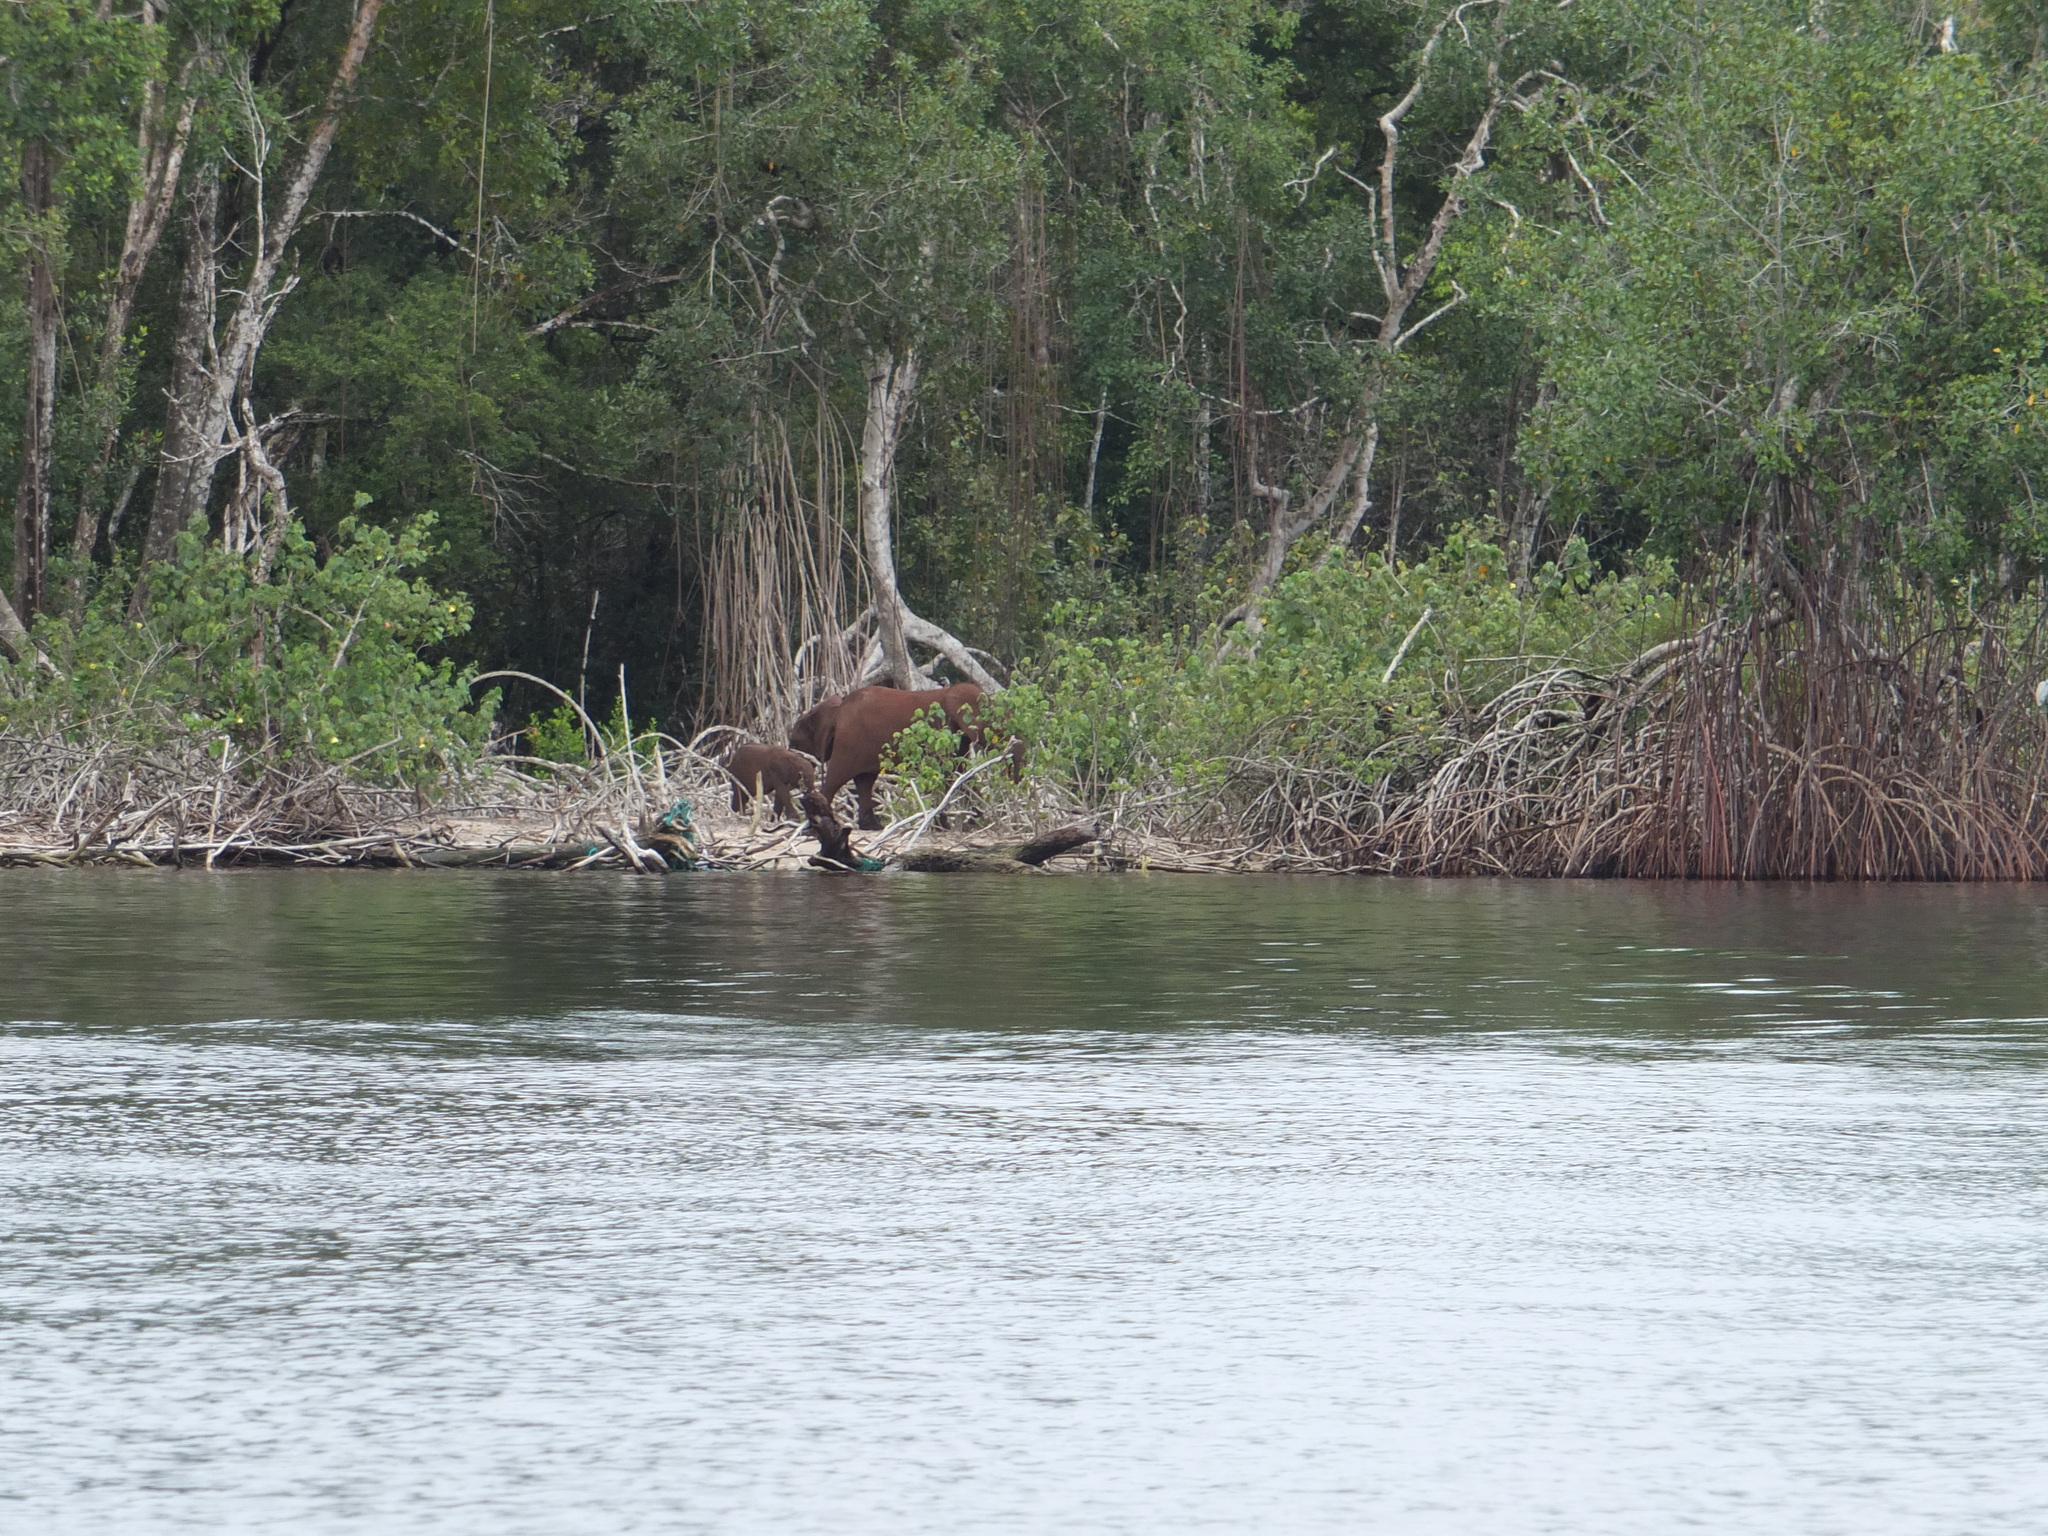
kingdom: Animalia
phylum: Chordata
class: Mammalia
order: Proboscidea
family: Elephantidae
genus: Loxodonta
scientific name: Loxodonta cyclotis
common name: African forest elephant
